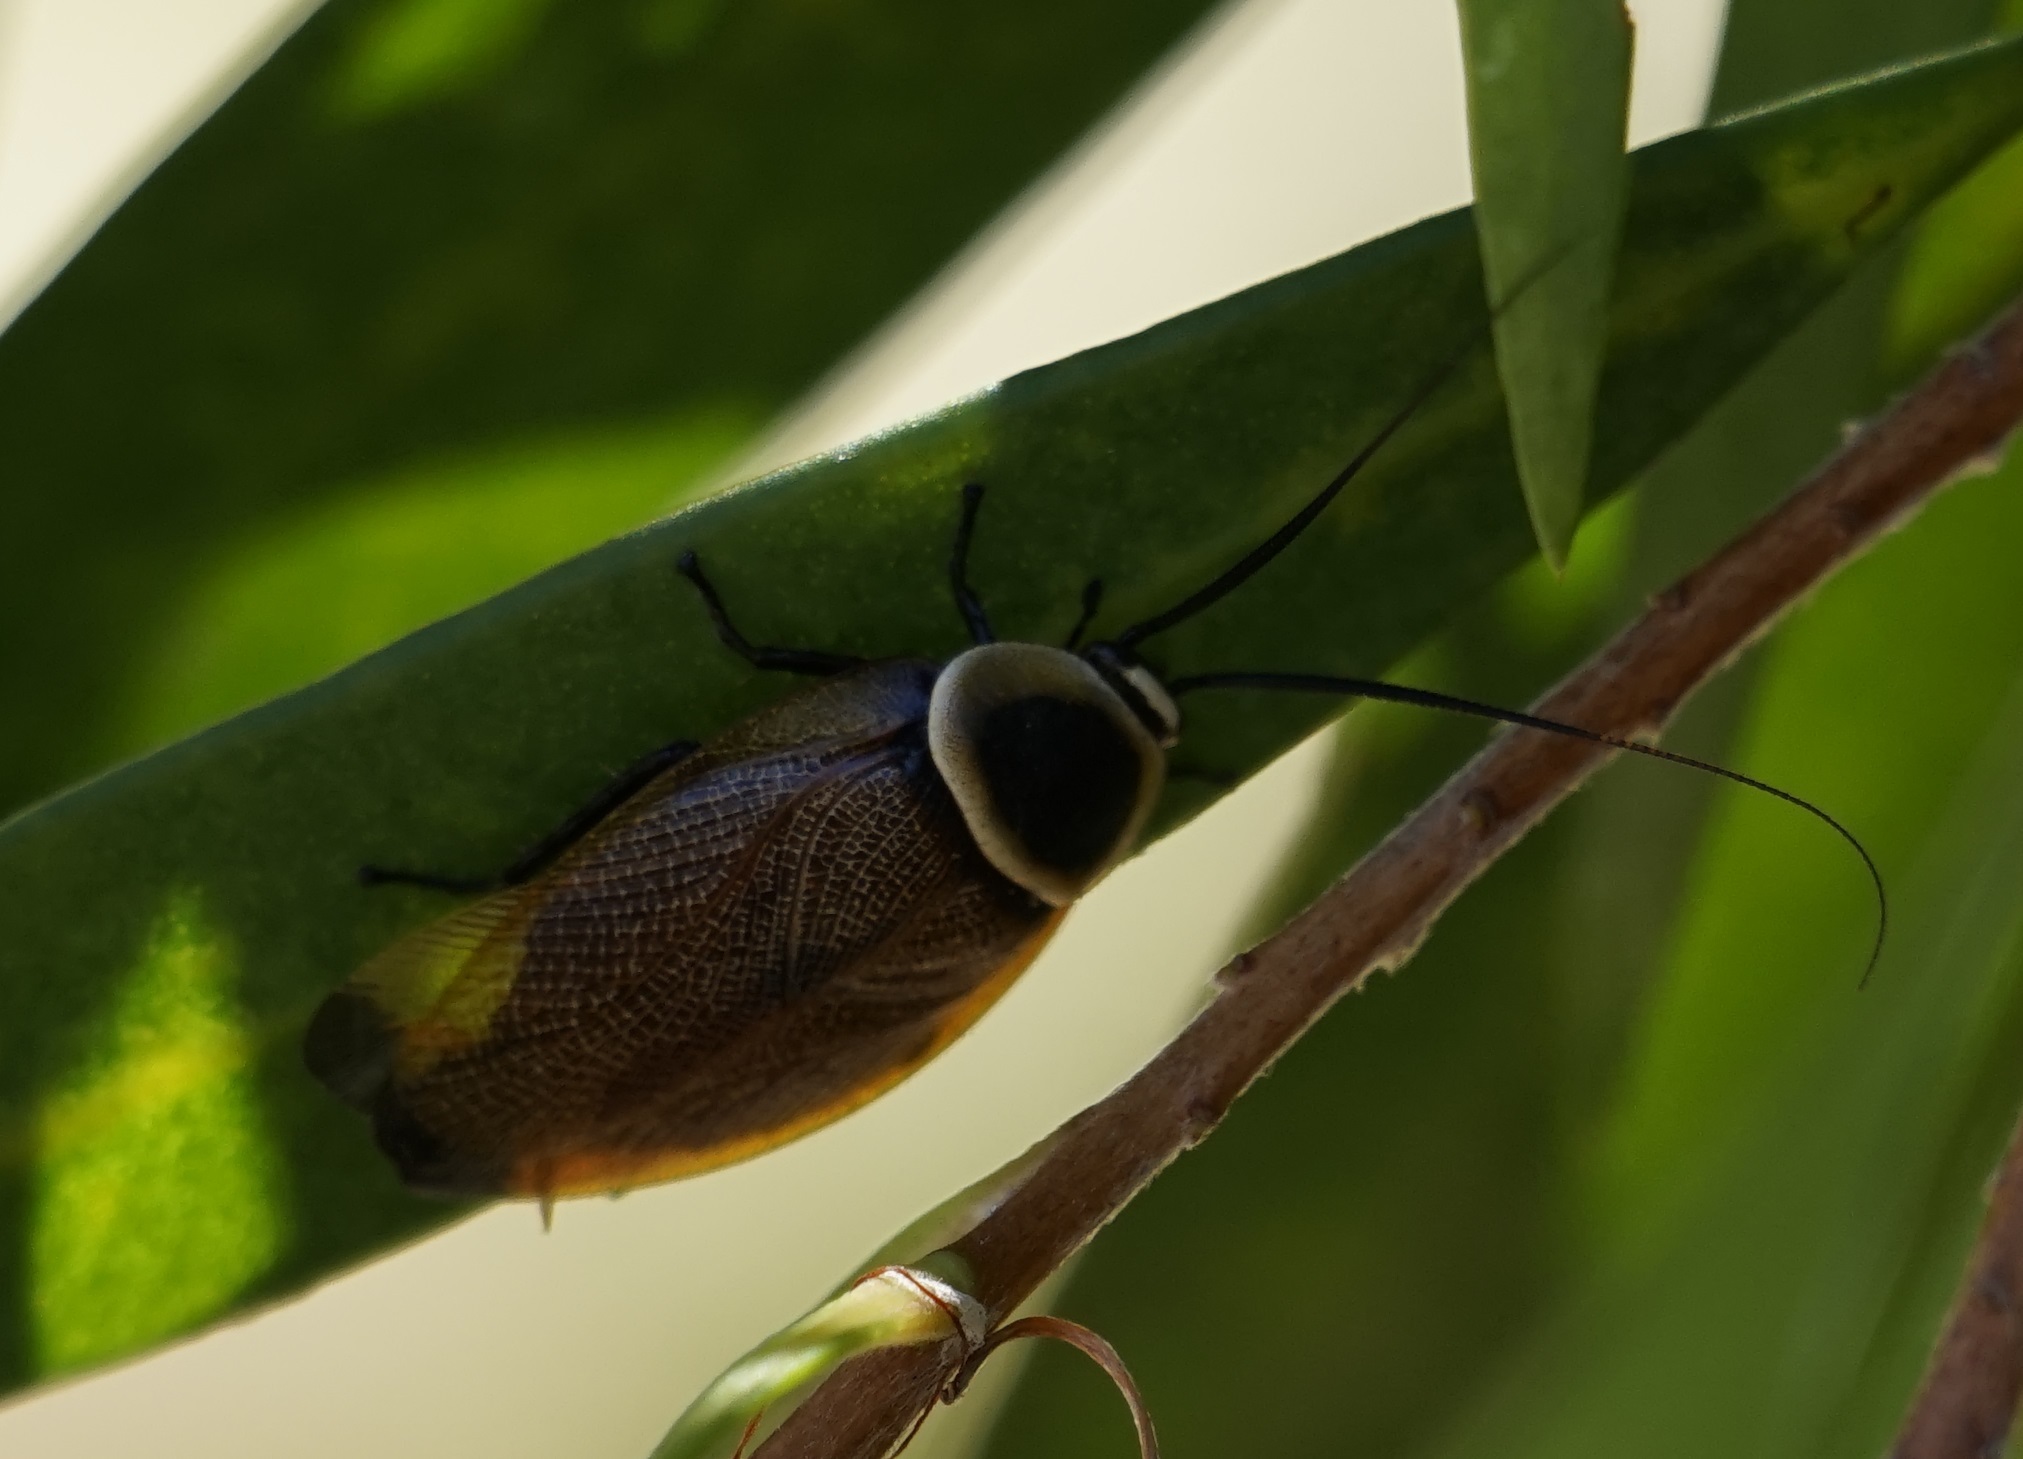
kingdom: Animalia
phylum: Arthropoda
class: Insecta
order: Blattodea
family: Ectobiidae
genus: Ellipsidion
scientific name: Ellipsidion australe
